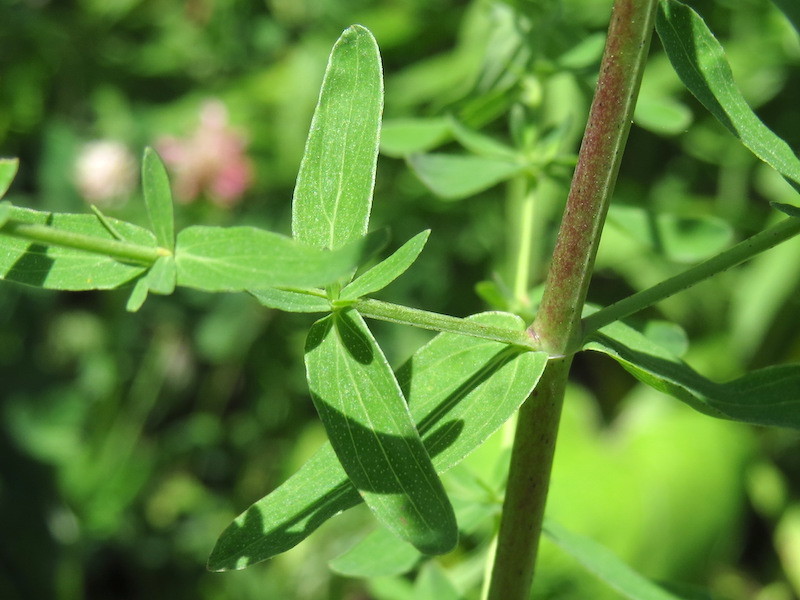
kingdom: Plantae
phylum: Tracheophyta
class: Magnoliopsida
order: Malpighiales
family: Hypericaceae
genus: Hypericum
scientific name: Hypericum perforatum
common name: Common st. johnswort
